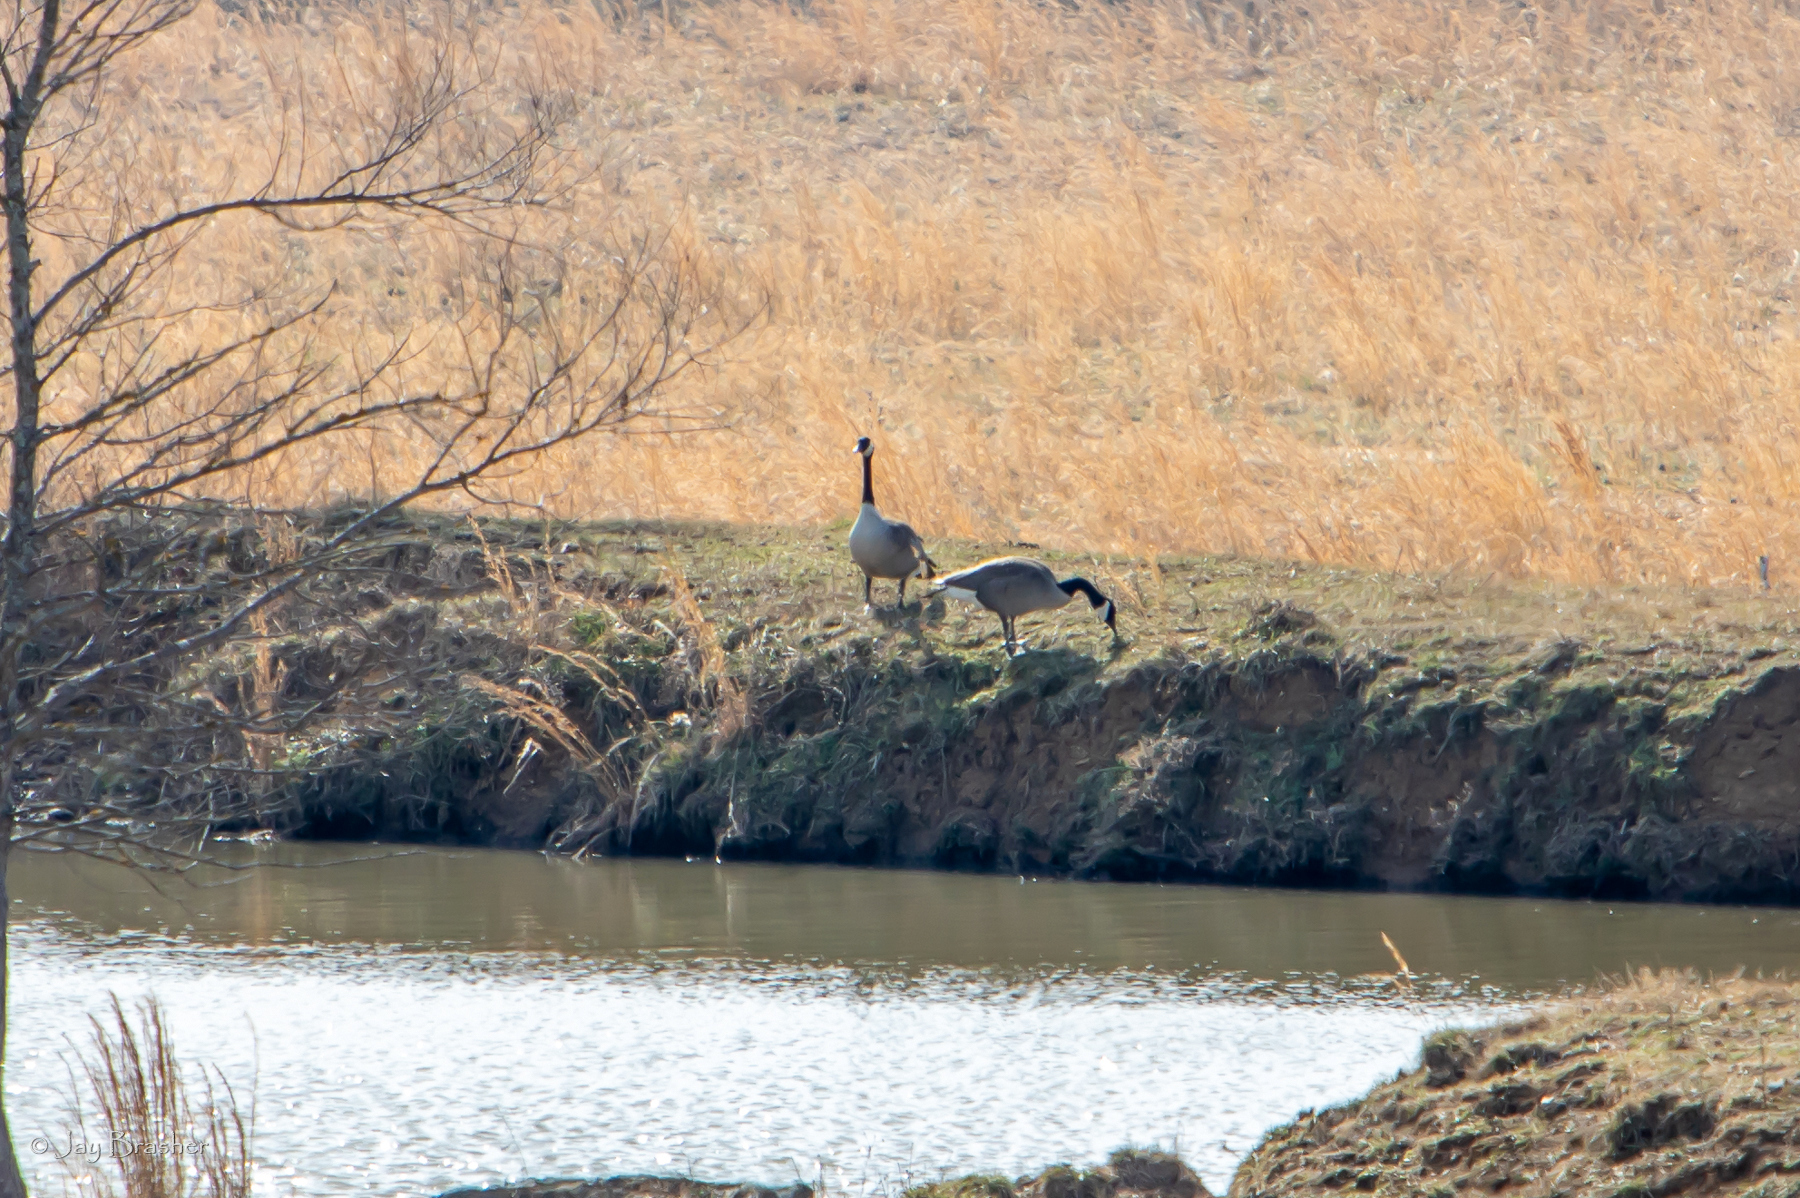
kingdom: Animalia
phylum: Chordata
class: Aves
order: Anseriformes
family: Anatidae
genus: Branta
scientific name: Branta canadensis
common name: Canada goose
